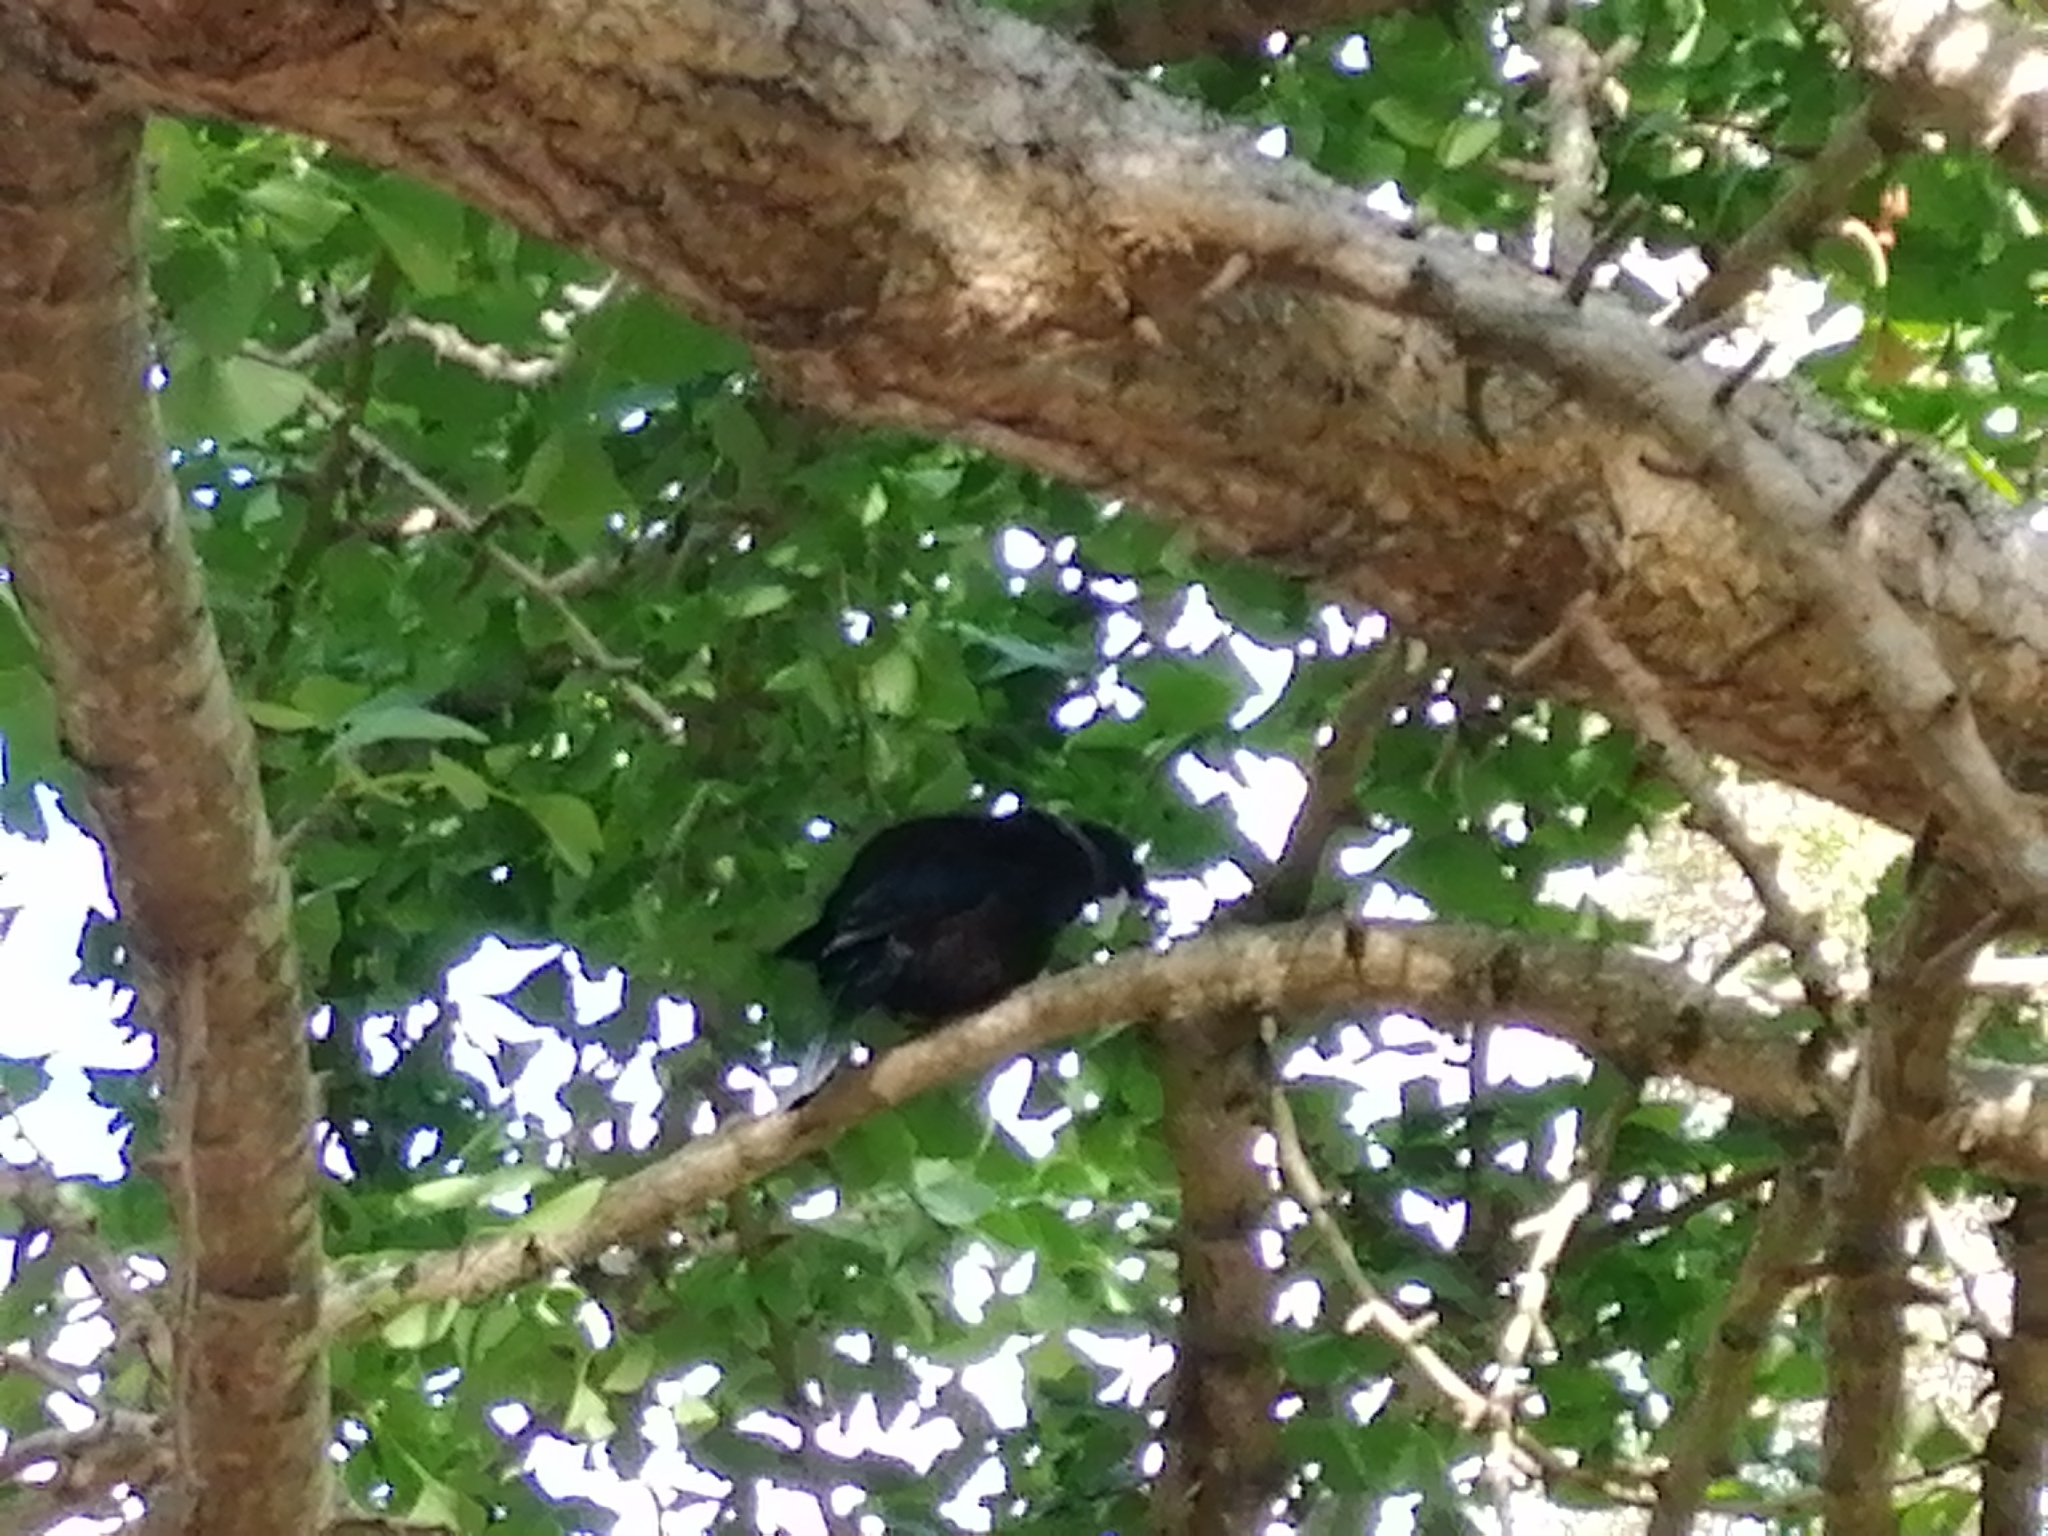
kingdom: Animalia
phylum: Chordata
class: Aves
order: Passeriformes
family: Meliphagidae
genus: Prosthemadera
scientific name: Prosthemadera novaeseelandiae
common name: Tui
